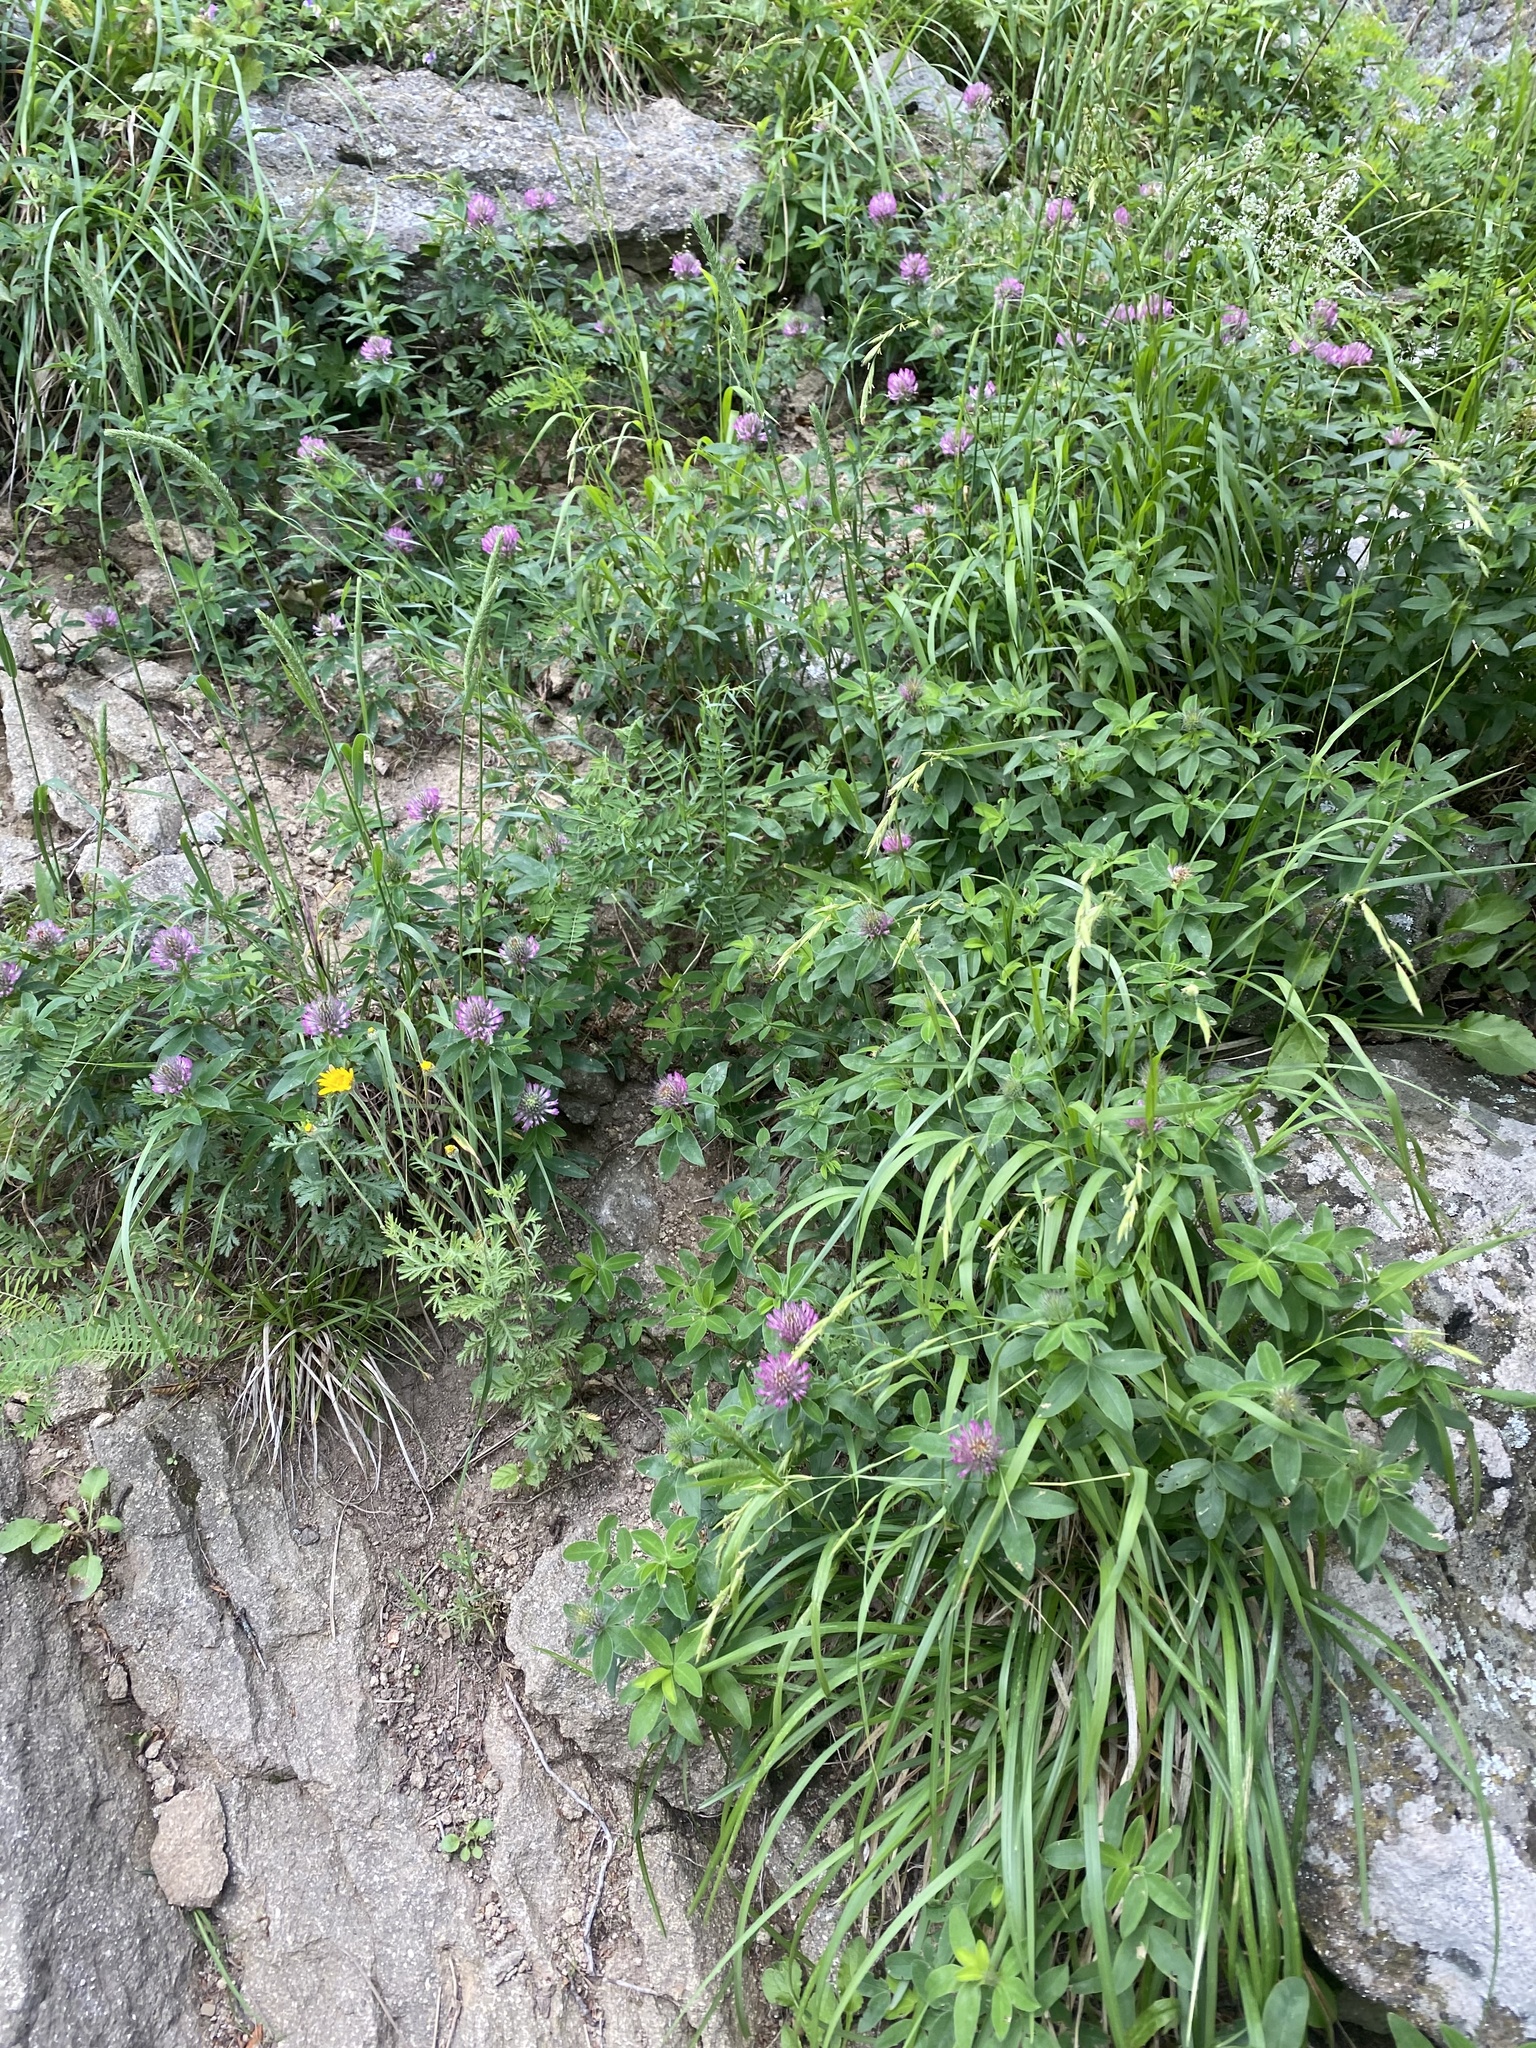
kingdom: Plantae
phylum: Tracheophyta
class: Magnoliopsida
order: Fabales
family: Fabaceae
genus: Trifolium
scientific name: Trifolium medium
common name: Zigzag clover
